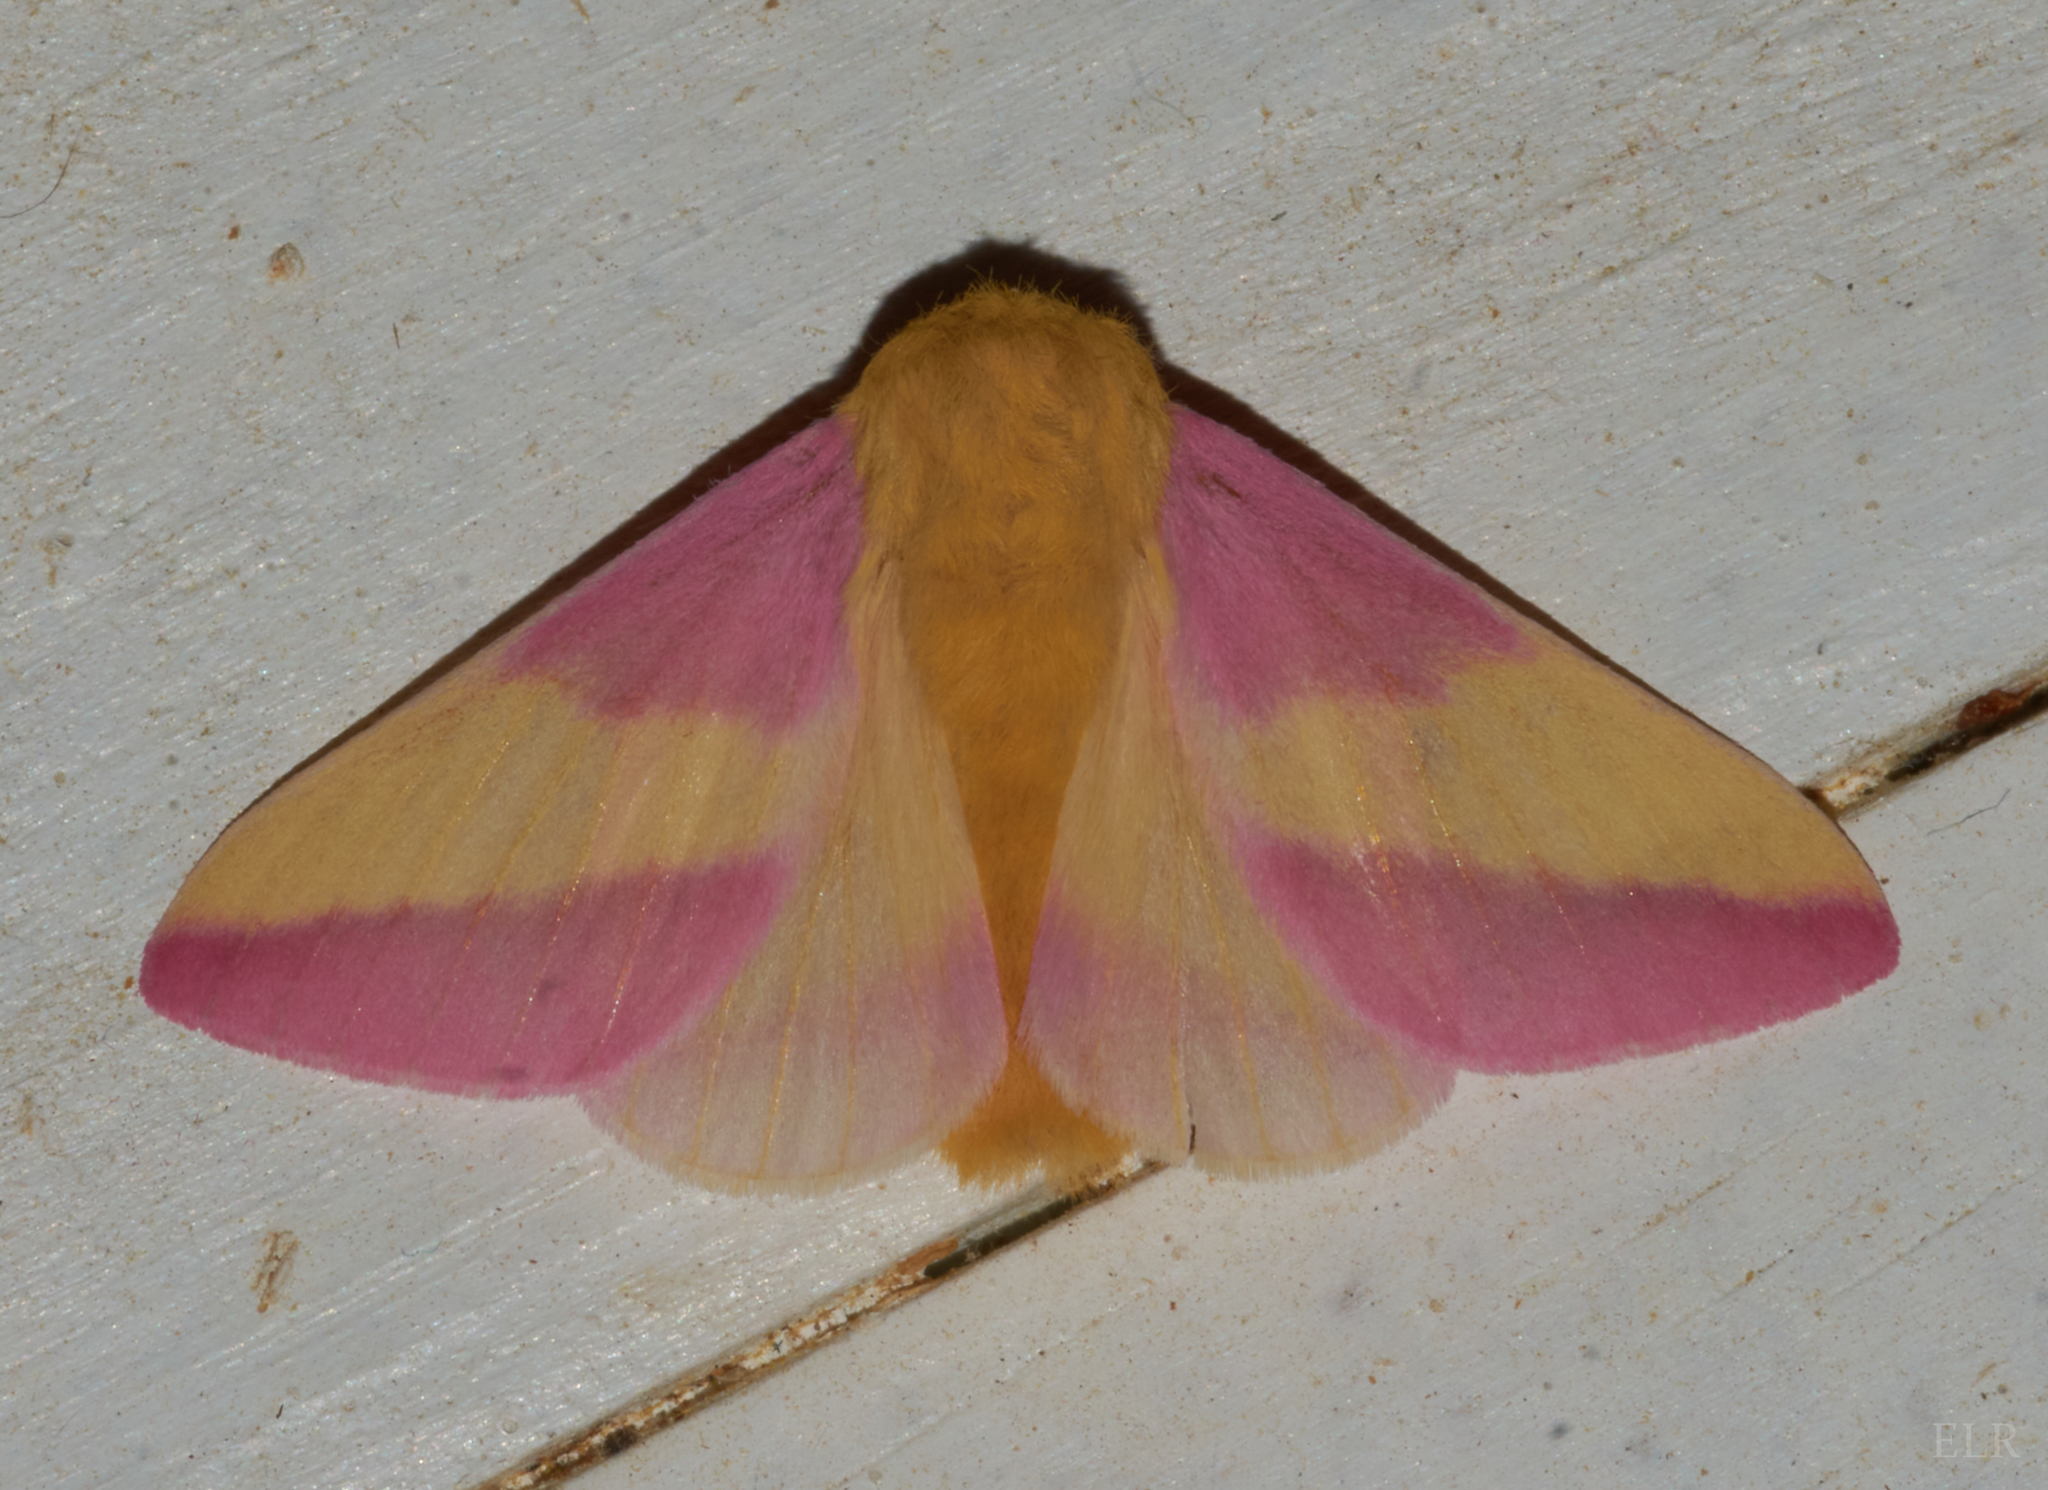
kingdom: Animalia
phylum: Arthropoda
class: Insecta
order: Lepidoptera
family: Saturniidae
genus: Dryocampa
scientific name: Dryocampa rubicunda
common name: Rosy maple moth
